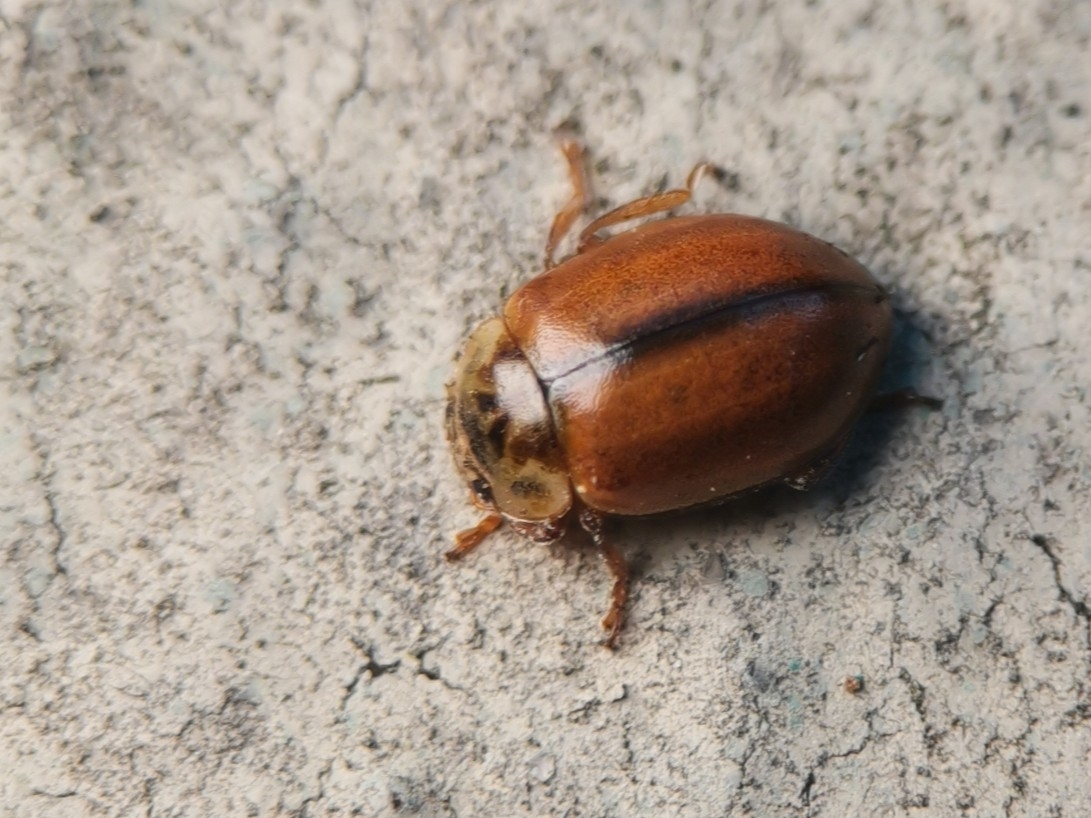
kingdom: Animalia
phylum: Arthropoda
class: Insecta
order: Coleoptera
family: Coccinellidae
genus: Aphidecta
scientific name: Aphidecta obliterata
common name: Larch ladybird
